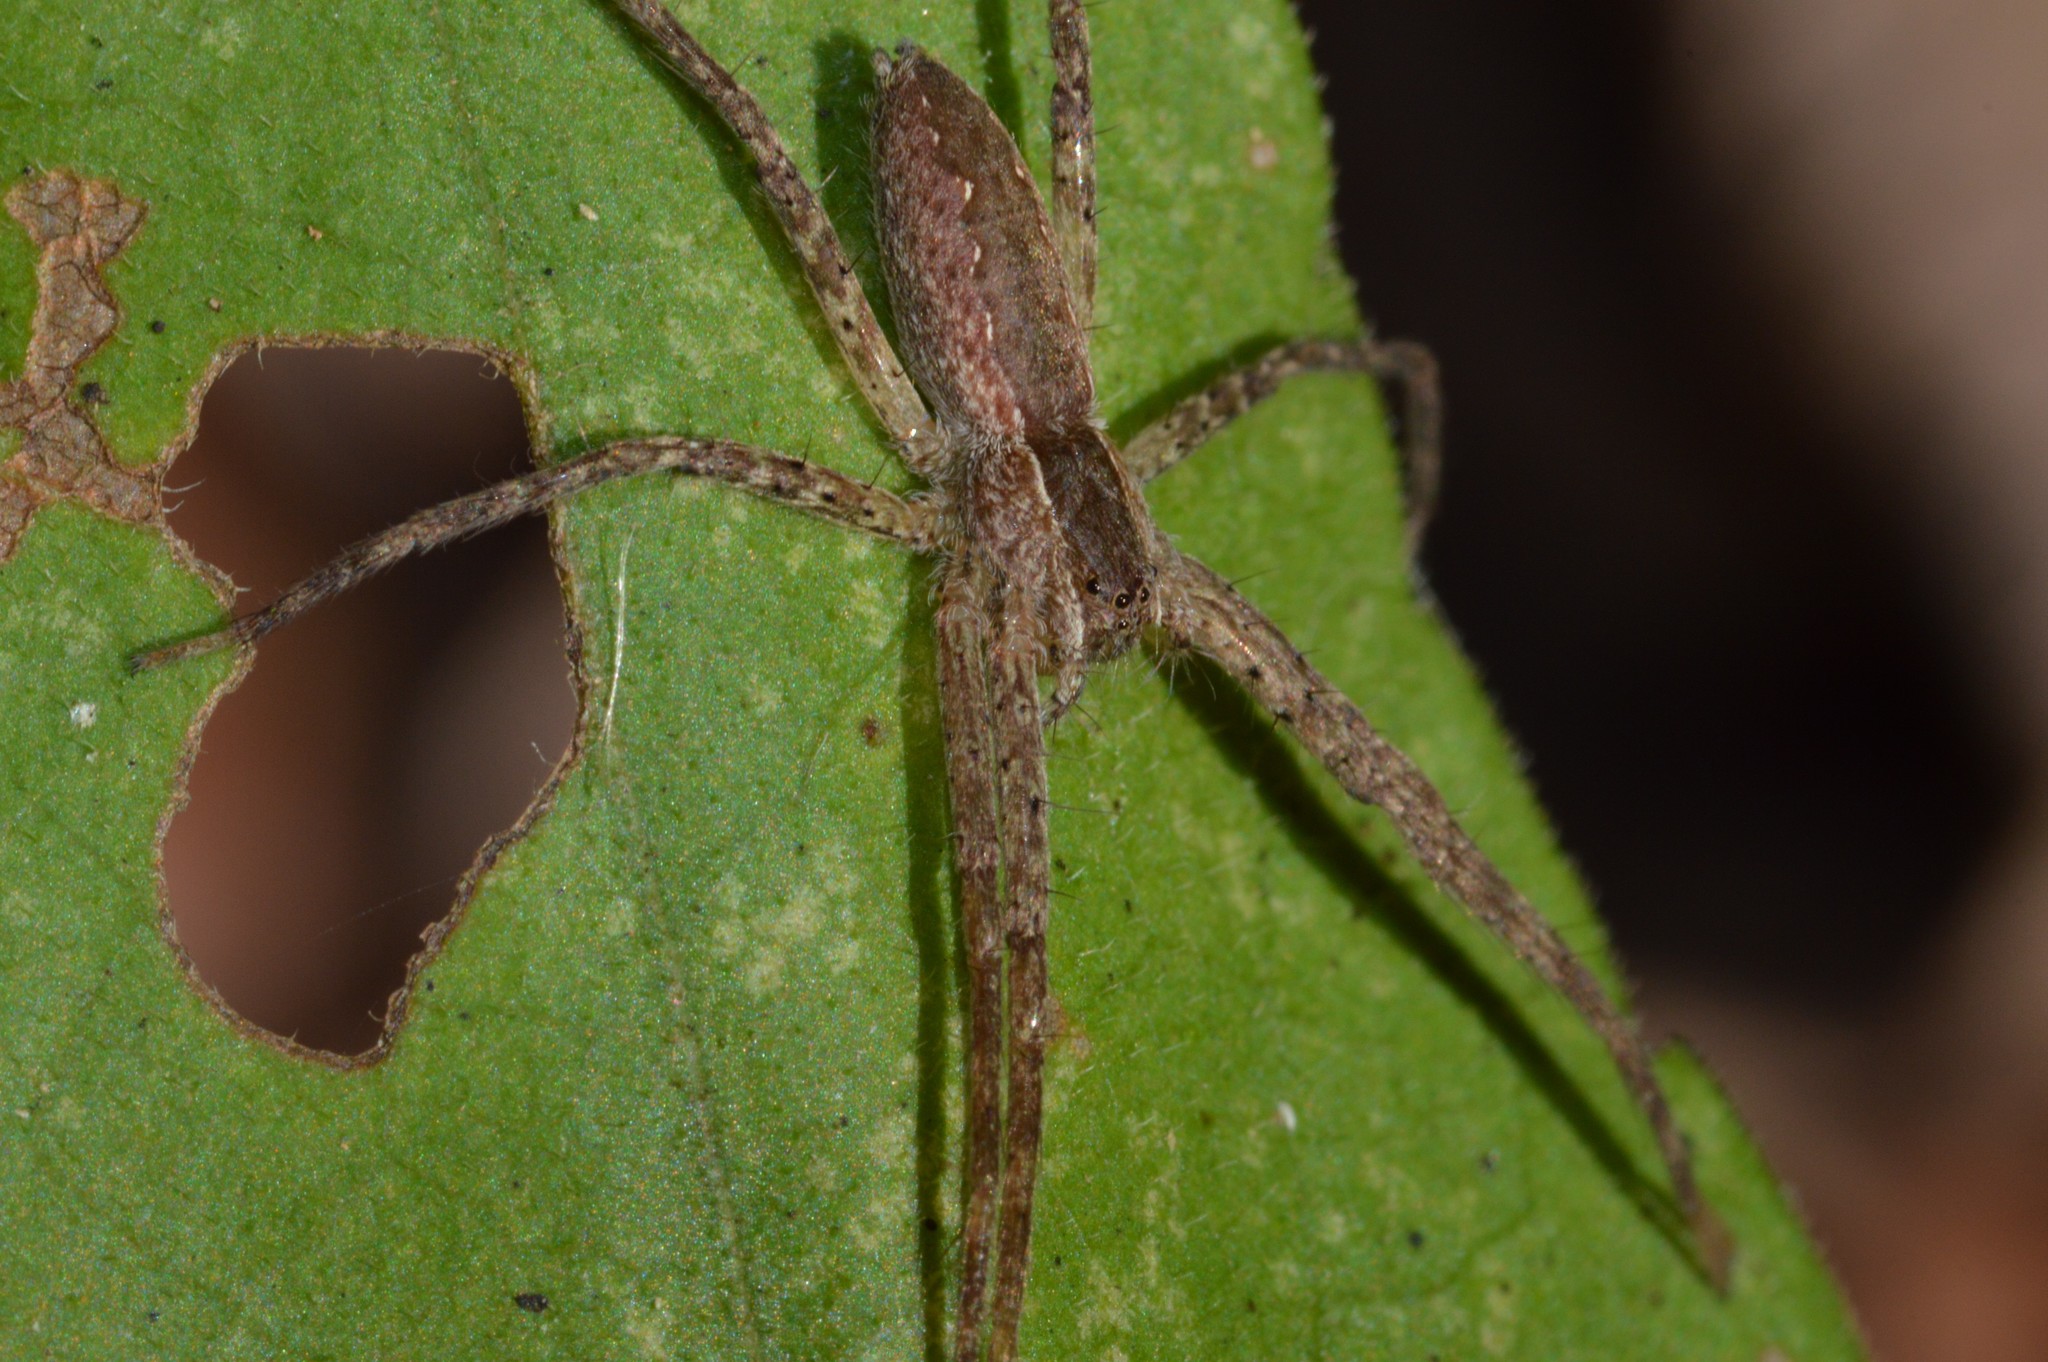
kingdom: Animalia
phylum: Arthropoda
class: Arachnida
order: Araneae
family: Pisauridae
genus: Pisaurina
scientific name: Pisaurina mira
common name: American nursery web spider
